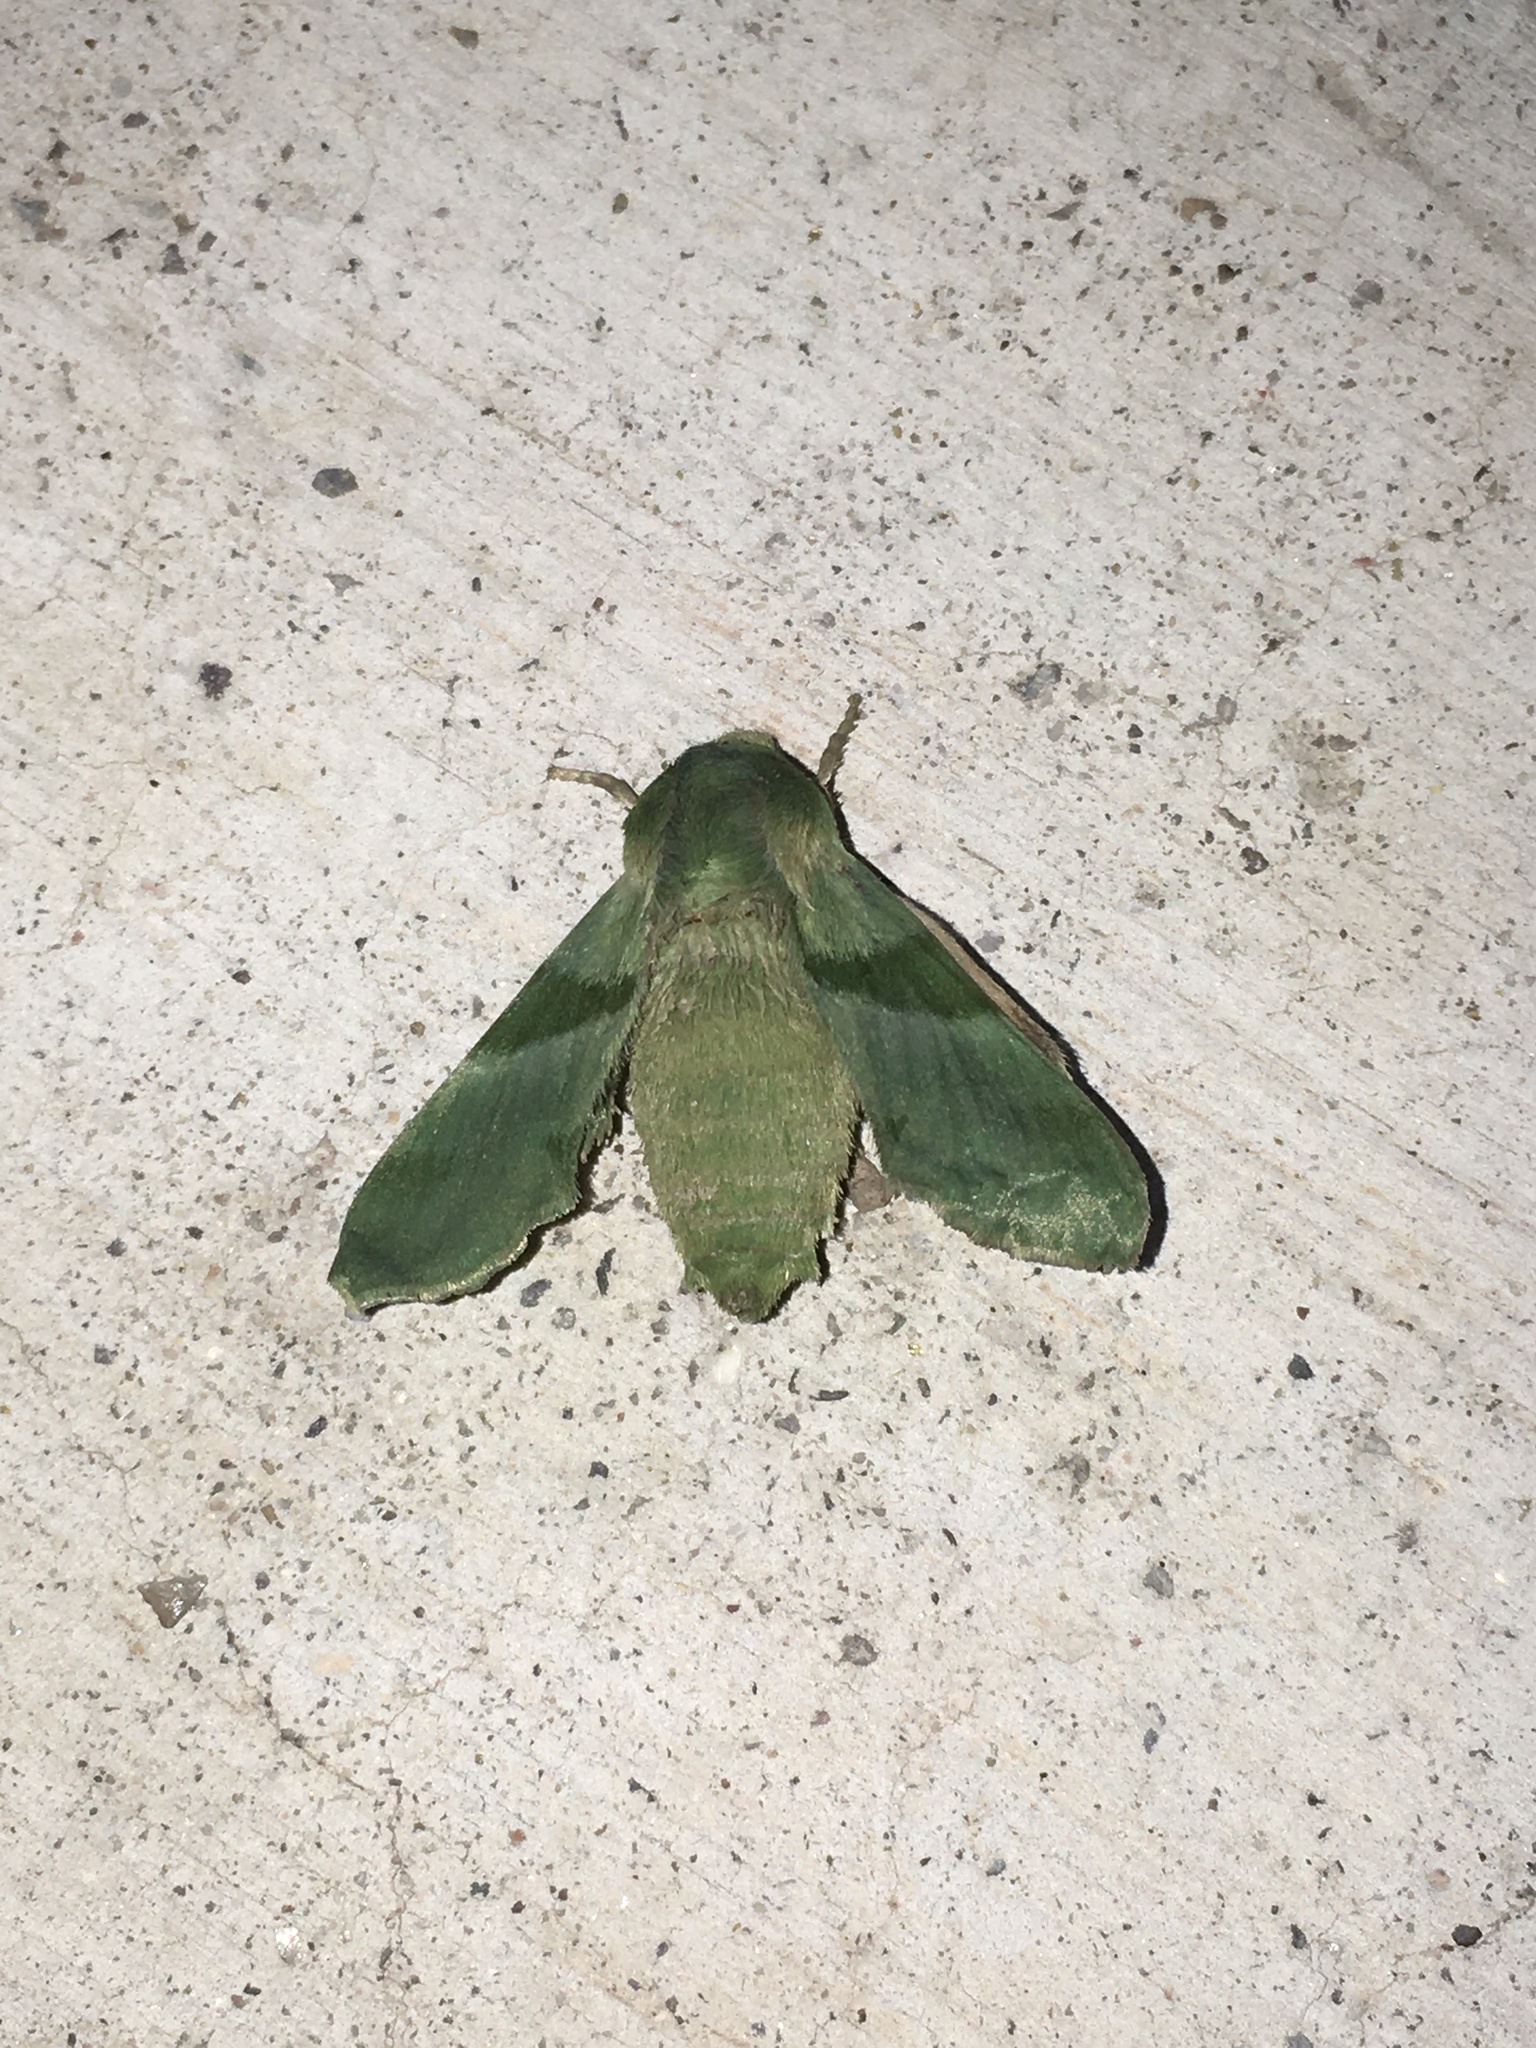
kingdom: Animalia
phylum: Arthropoda
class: Insecta
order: Lepidoptera
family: Sphingidae
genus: Proserpinus
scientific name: Proserpinus terlooii
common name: Terloo's sphinx
